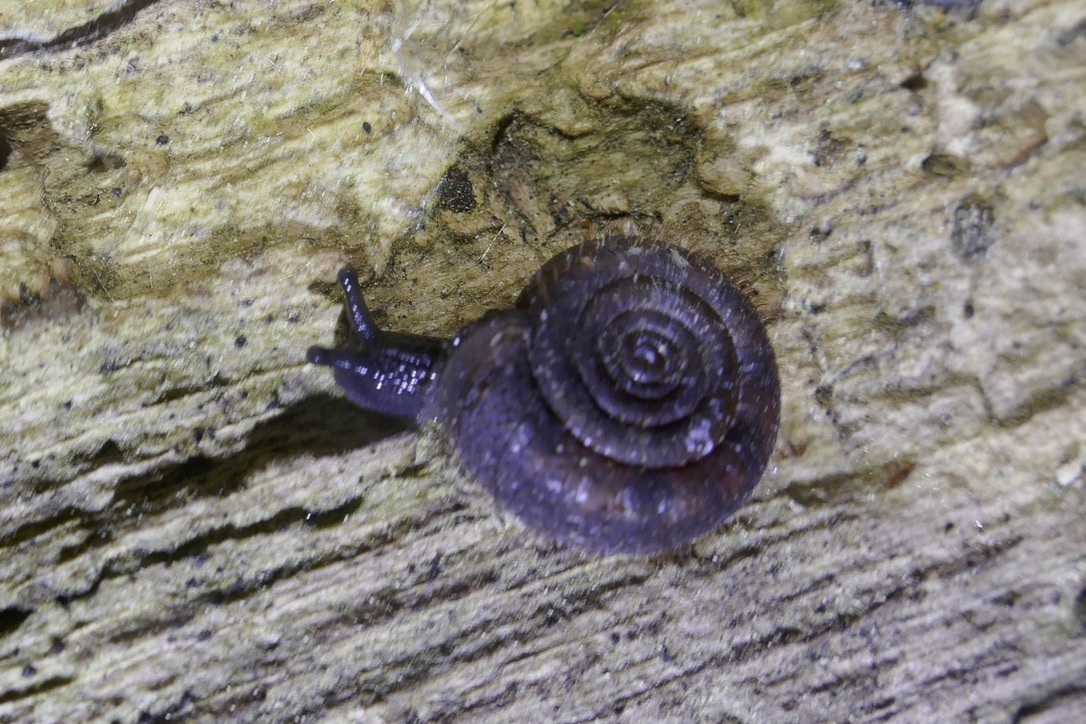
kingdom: Animalia
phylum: Mollusca
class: Gastropoda
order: Stylommatophora
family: Helicodontidae
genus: Helicodonta
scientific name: Helicodonta obvoluta
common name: Cheese snail
